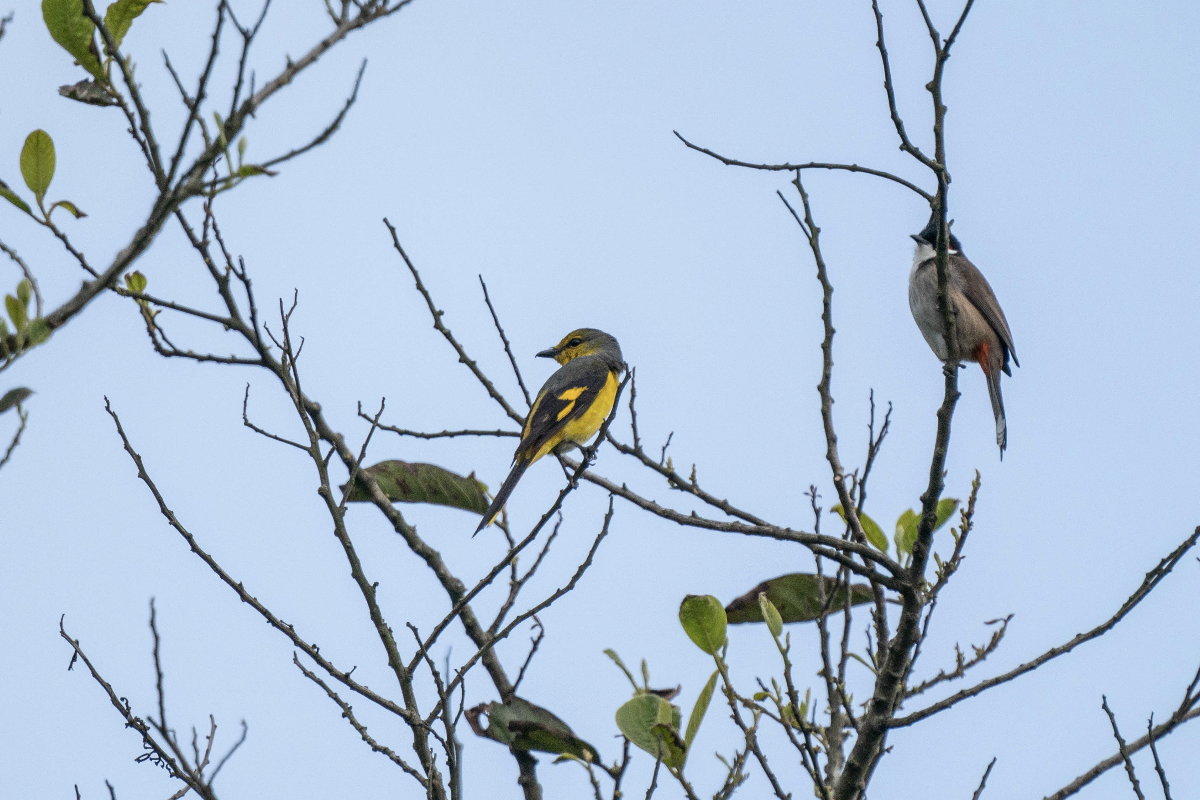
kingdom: Animalia
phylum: Chordata
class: Aves
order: Passeriformes
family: Campephagidae
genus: Pericrocotus
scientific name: Pericrocotus speciosus
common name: Scarlet minivet
